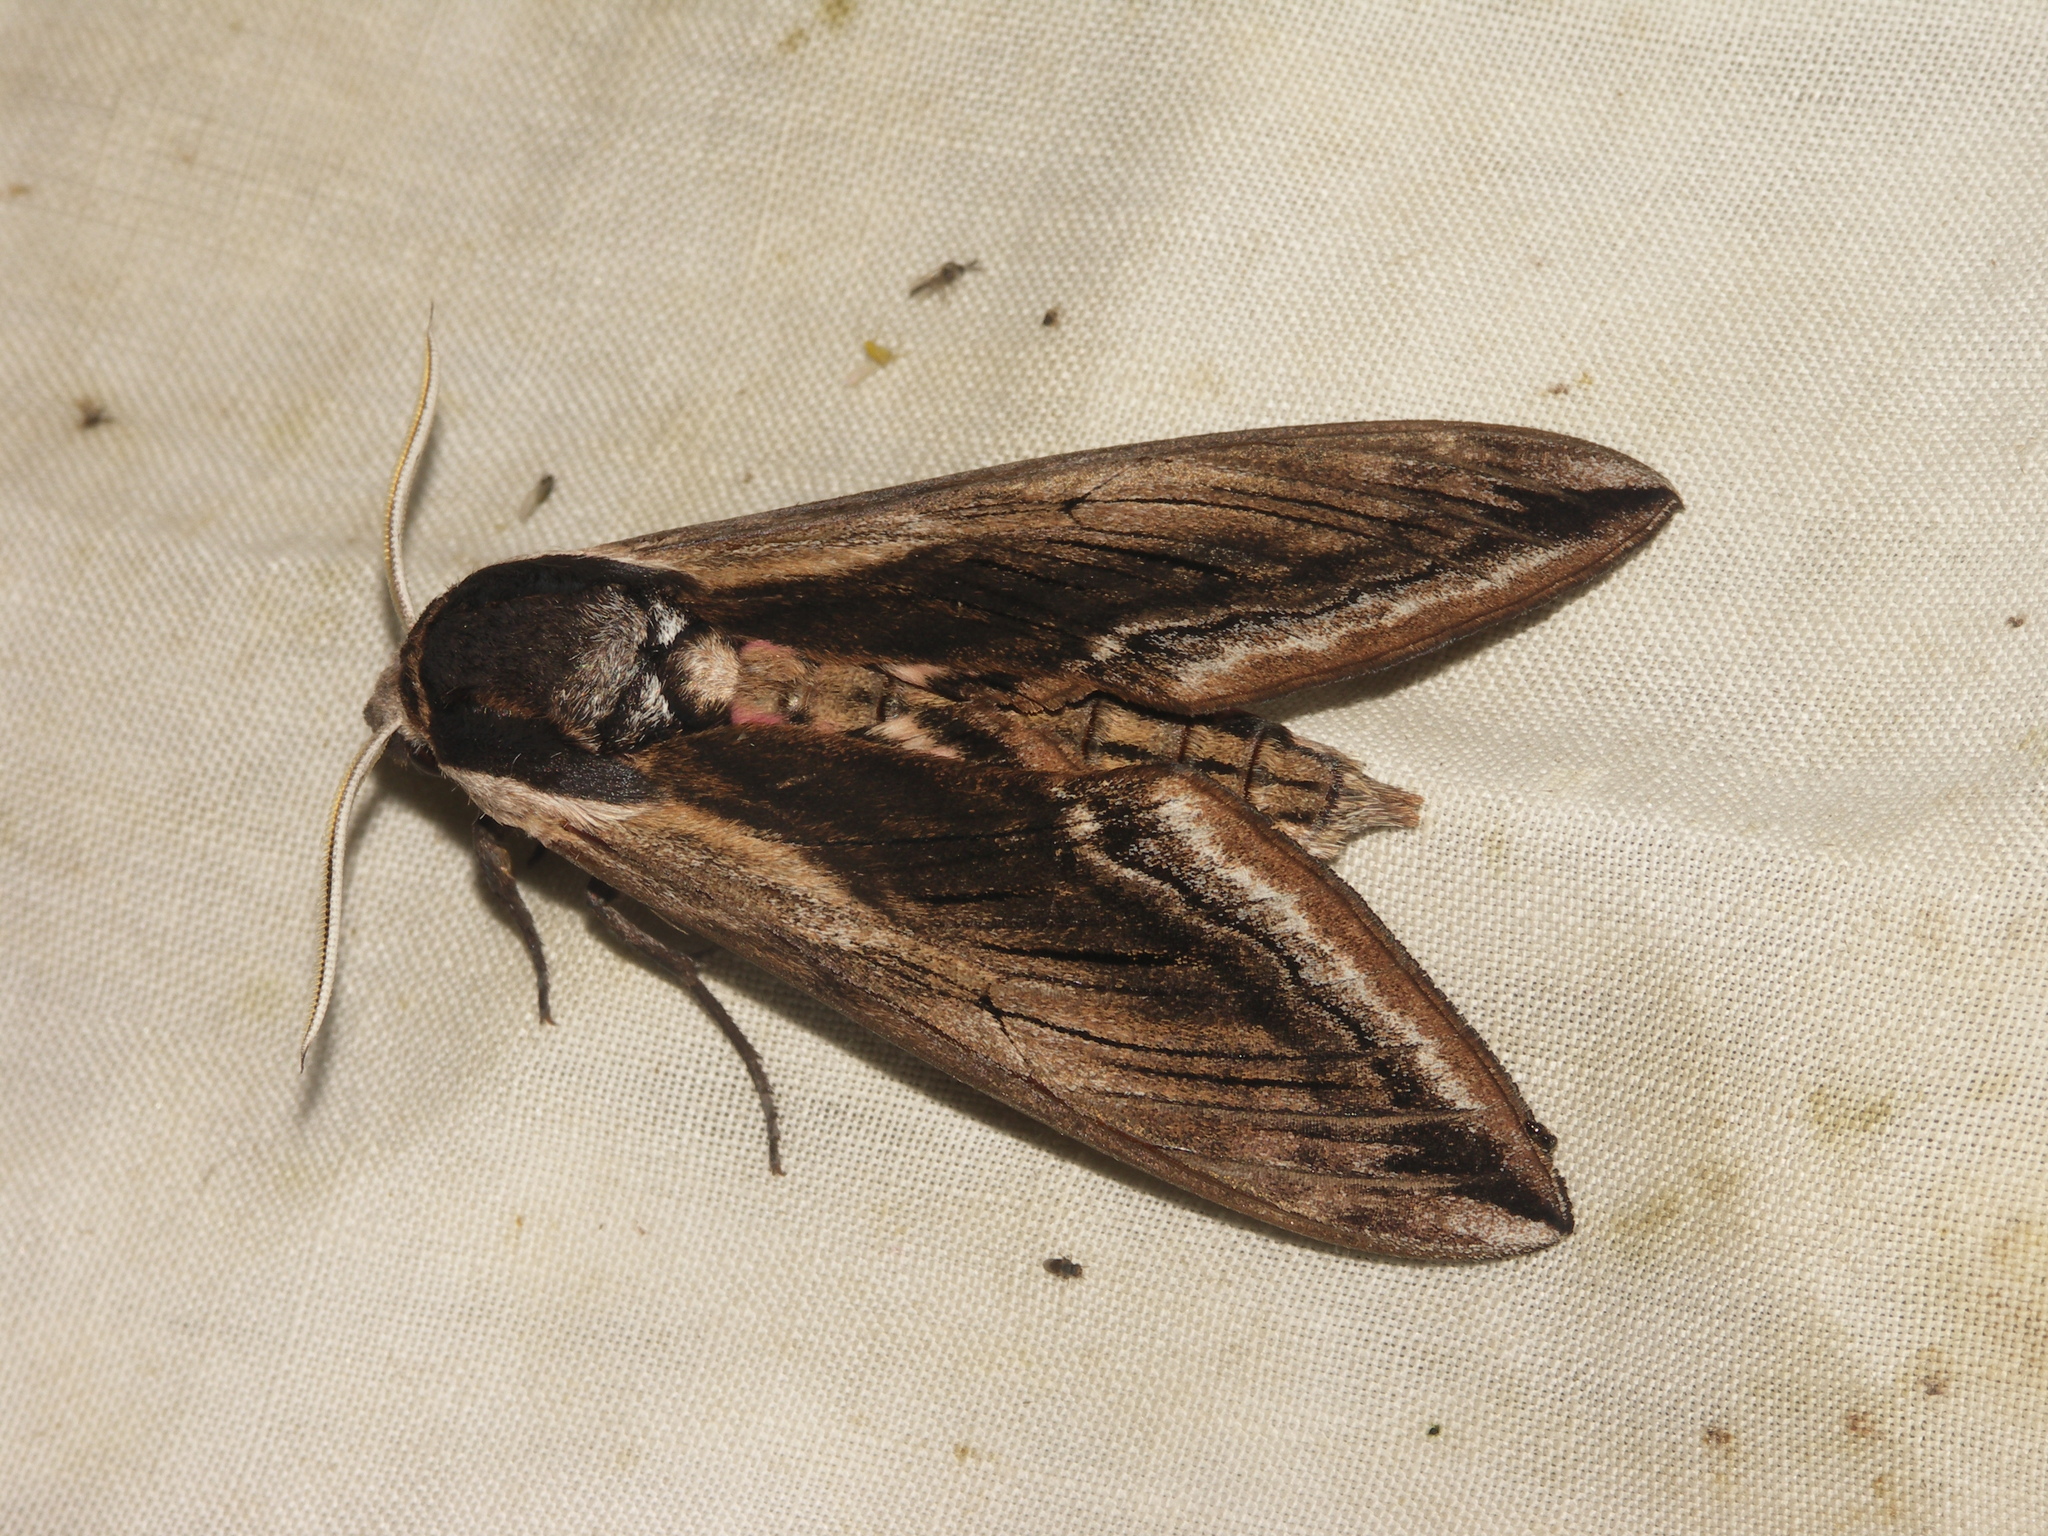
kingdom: Animalia
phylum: Arthropoda
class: Insecta
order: Lepidoptera
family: Sphingidae
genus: Sphinx
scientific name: Sphinx ligustri
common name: Privet hawk-moth
